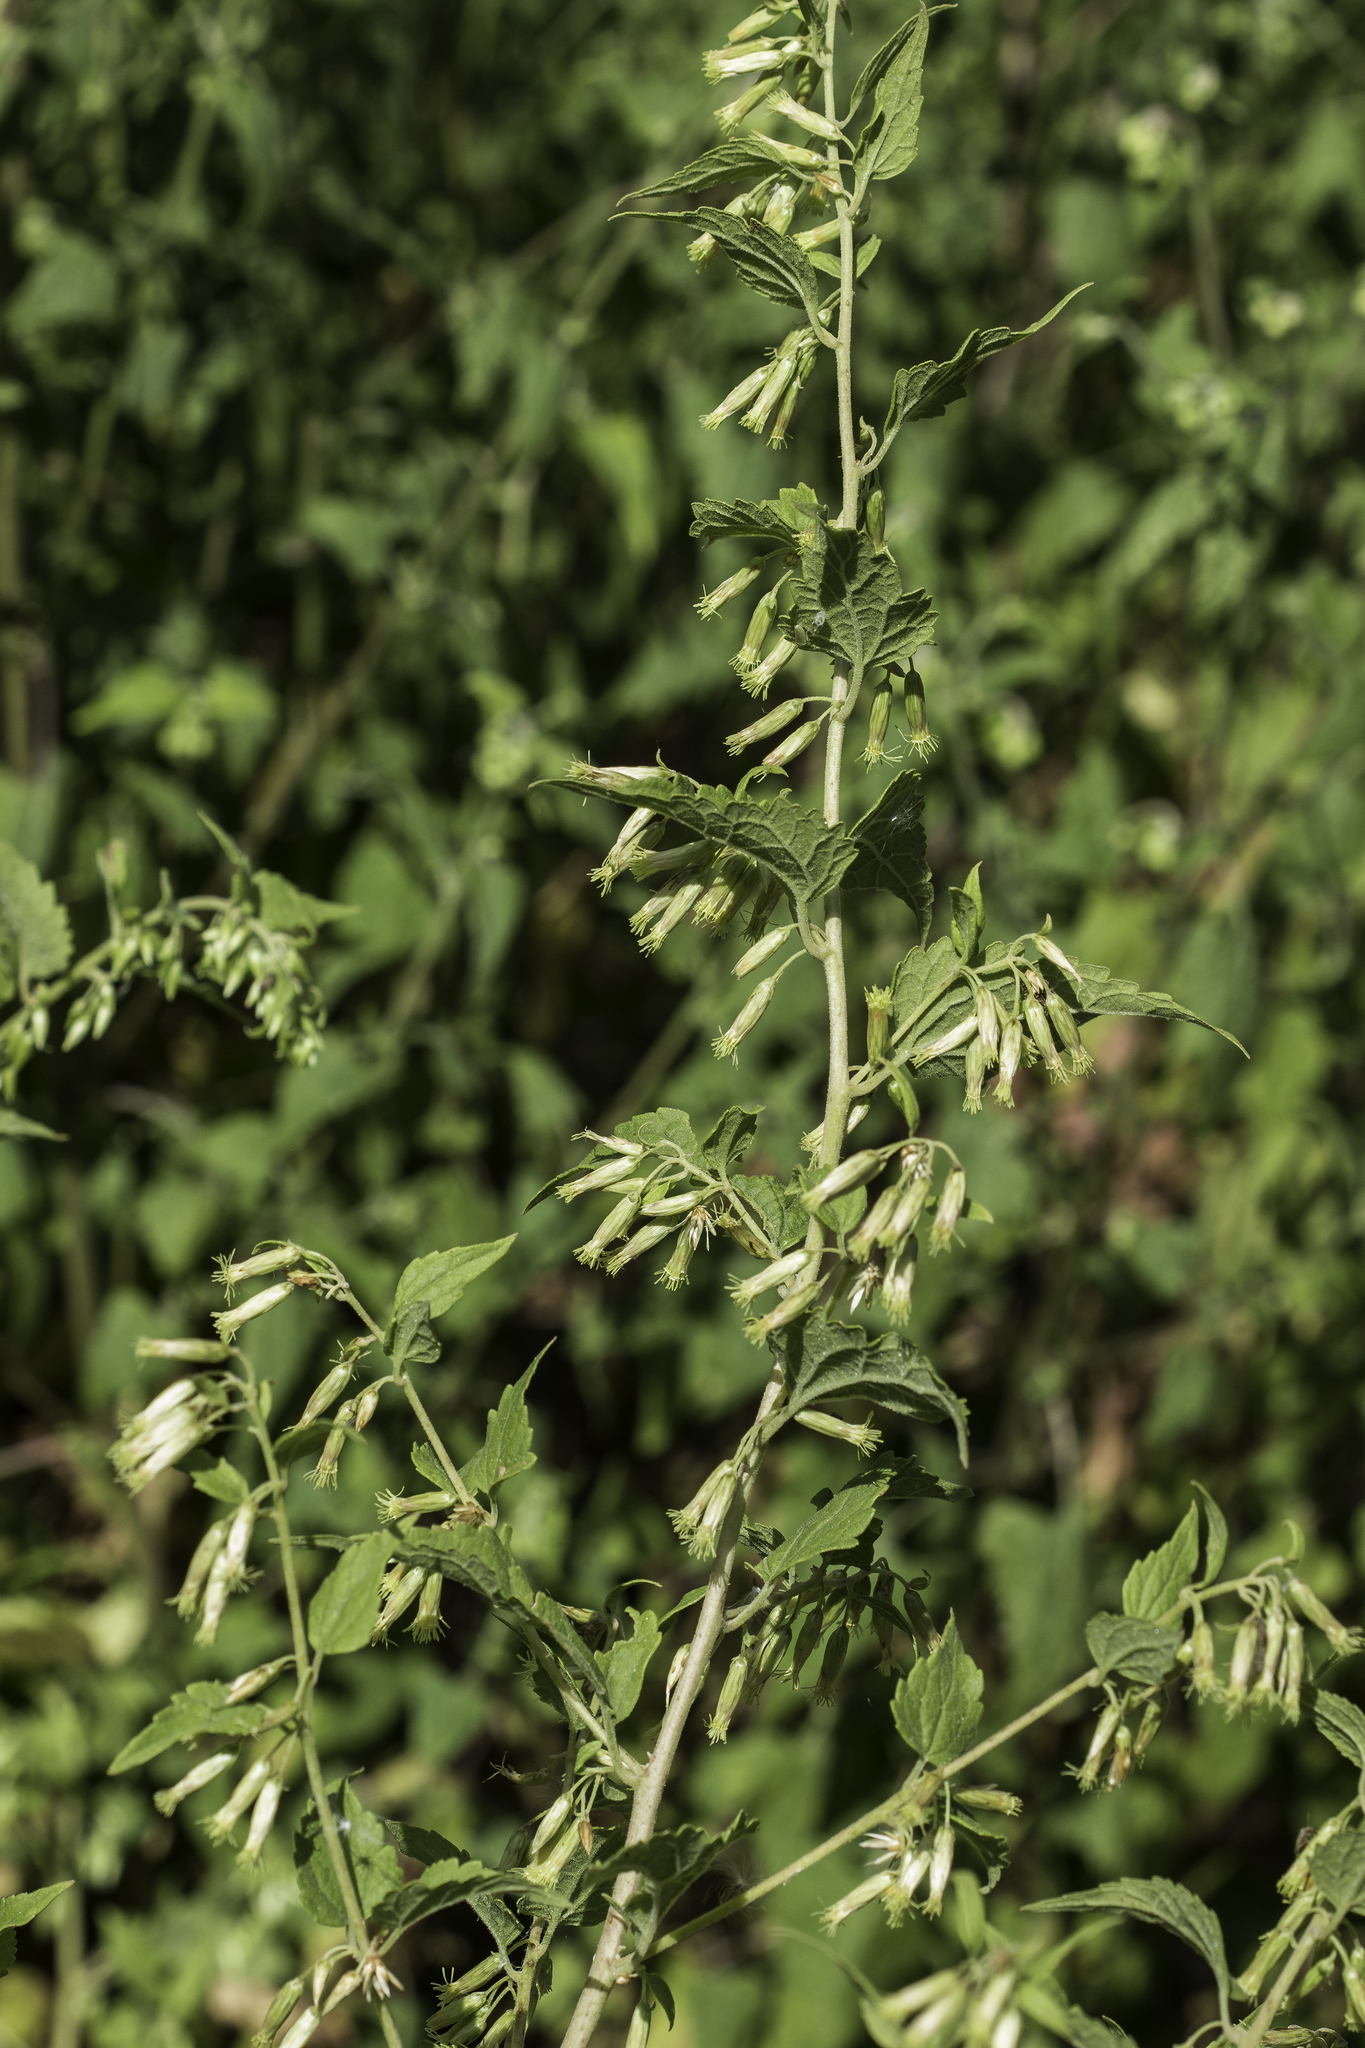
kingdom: Plantae
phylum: Tracheophyta
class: Magnoliopsida
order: Asterales
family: Asteraceae
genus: Brickellia
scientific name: Brickellia rusbyi
